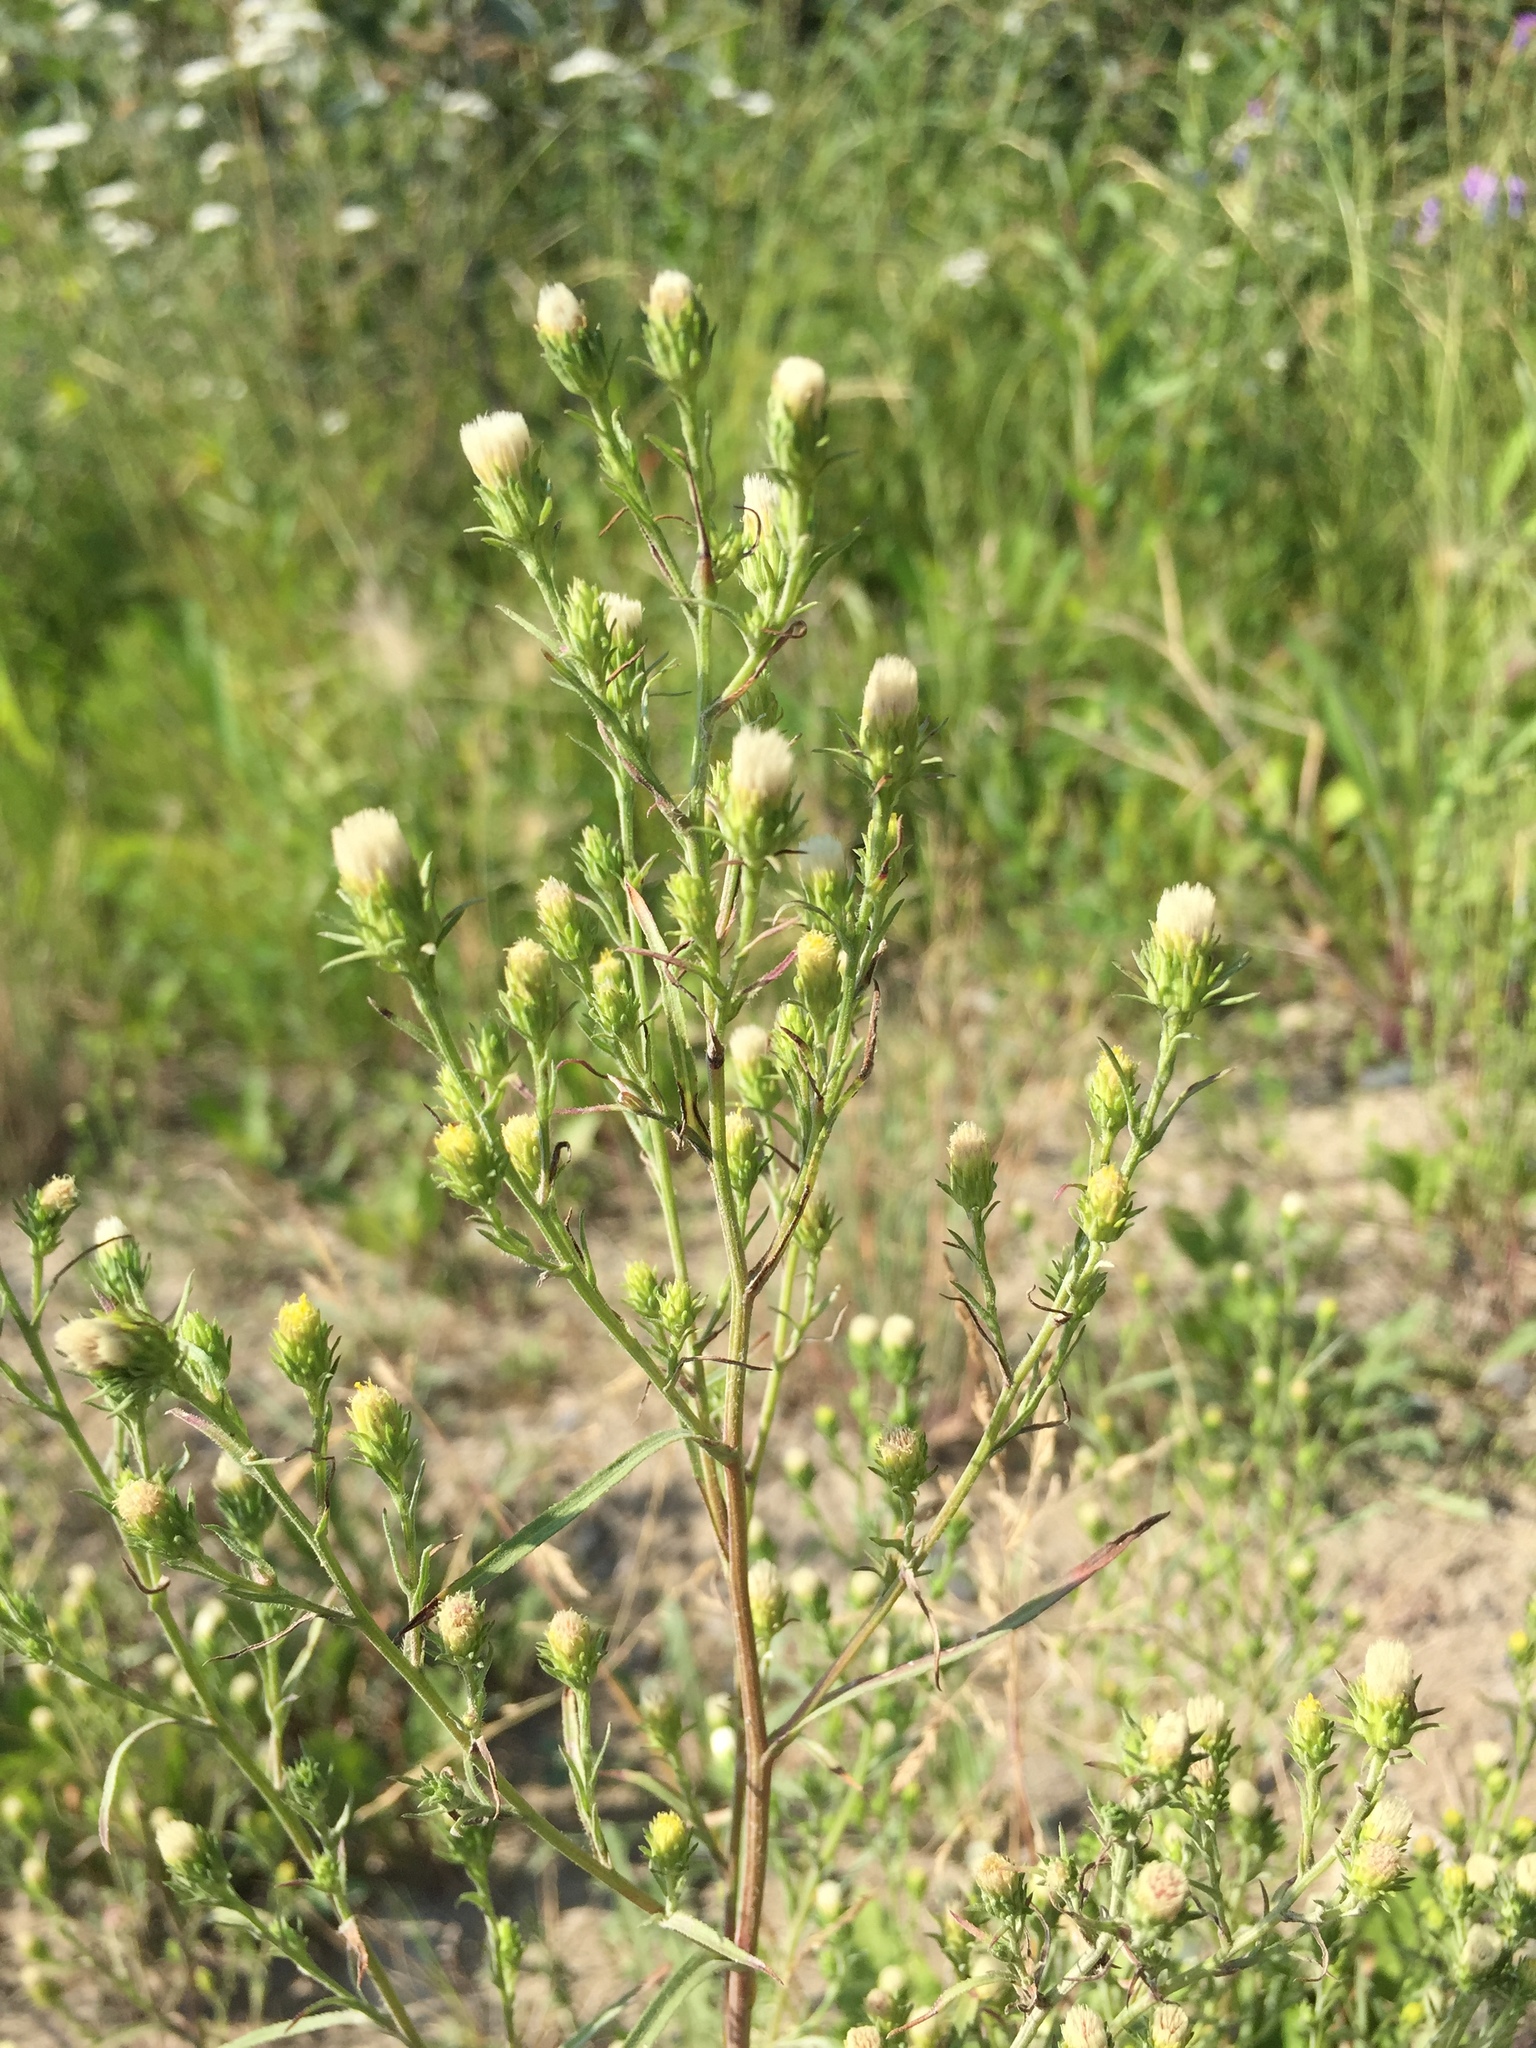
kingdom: Plantae
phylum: Tracheophyta
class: Magnoliopsida
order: Asterales
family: Asteraceae
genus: Symphyotrichum
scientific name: Symphyotrichum ciliatum
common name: Rayless annual aster
